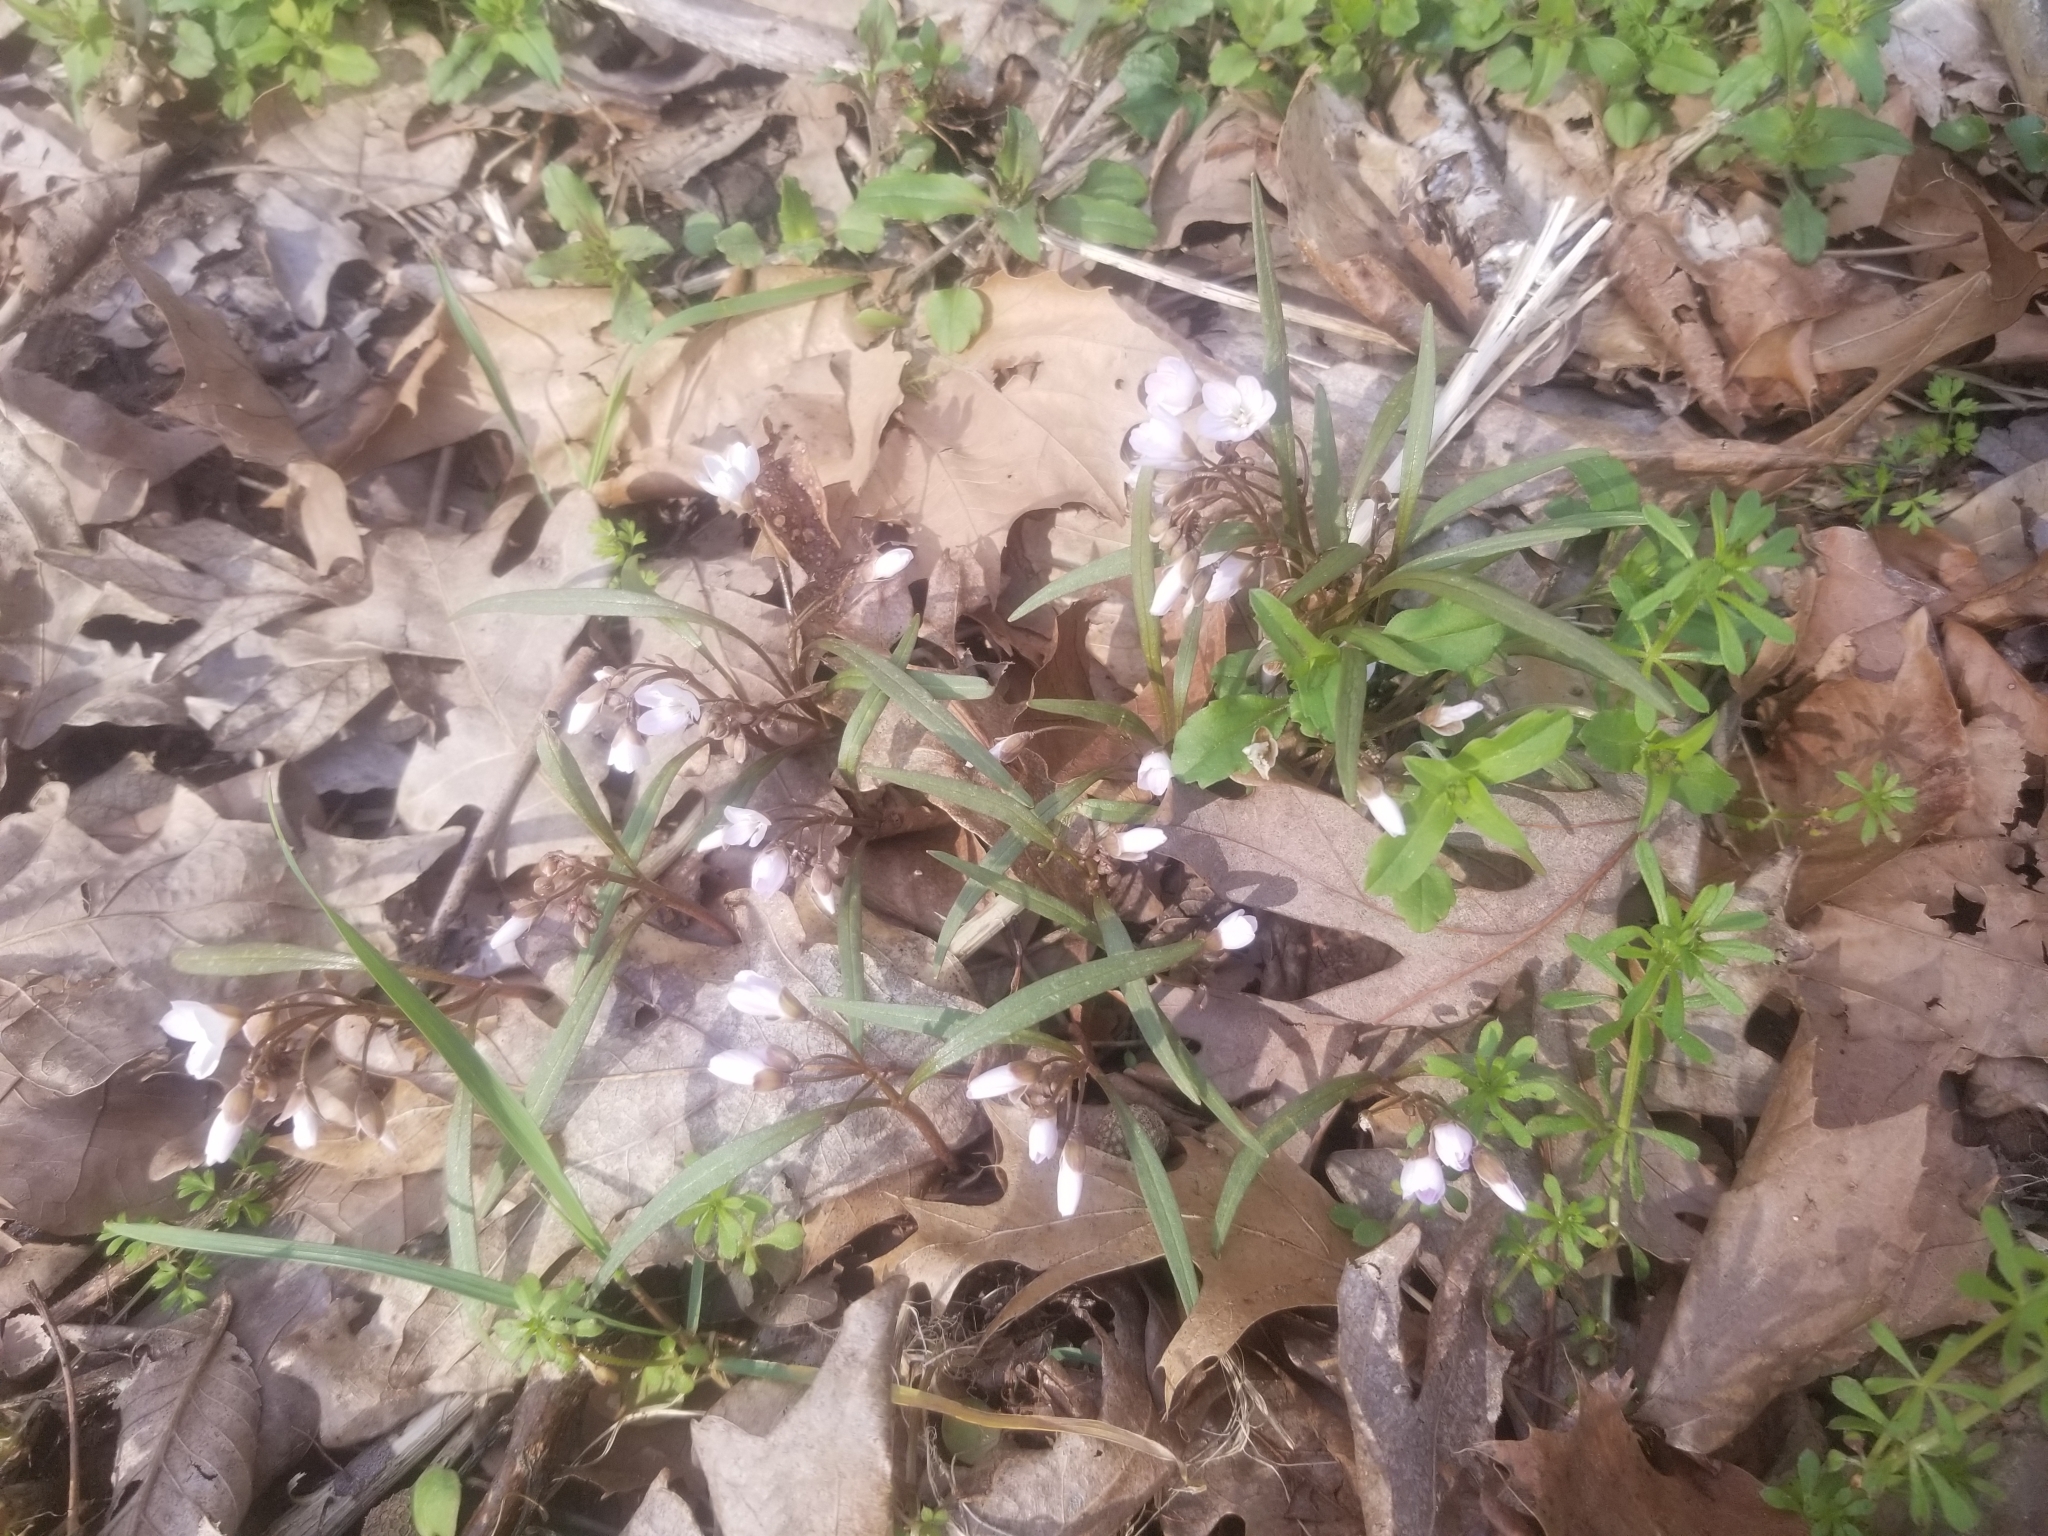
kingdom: Plantae
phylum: Tracheophyta
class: Magnoliopsida
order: Caryophyllales
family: Montiaceae
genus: Claytonia
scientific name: Claytonia virginica
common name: Virginia springbeauty
